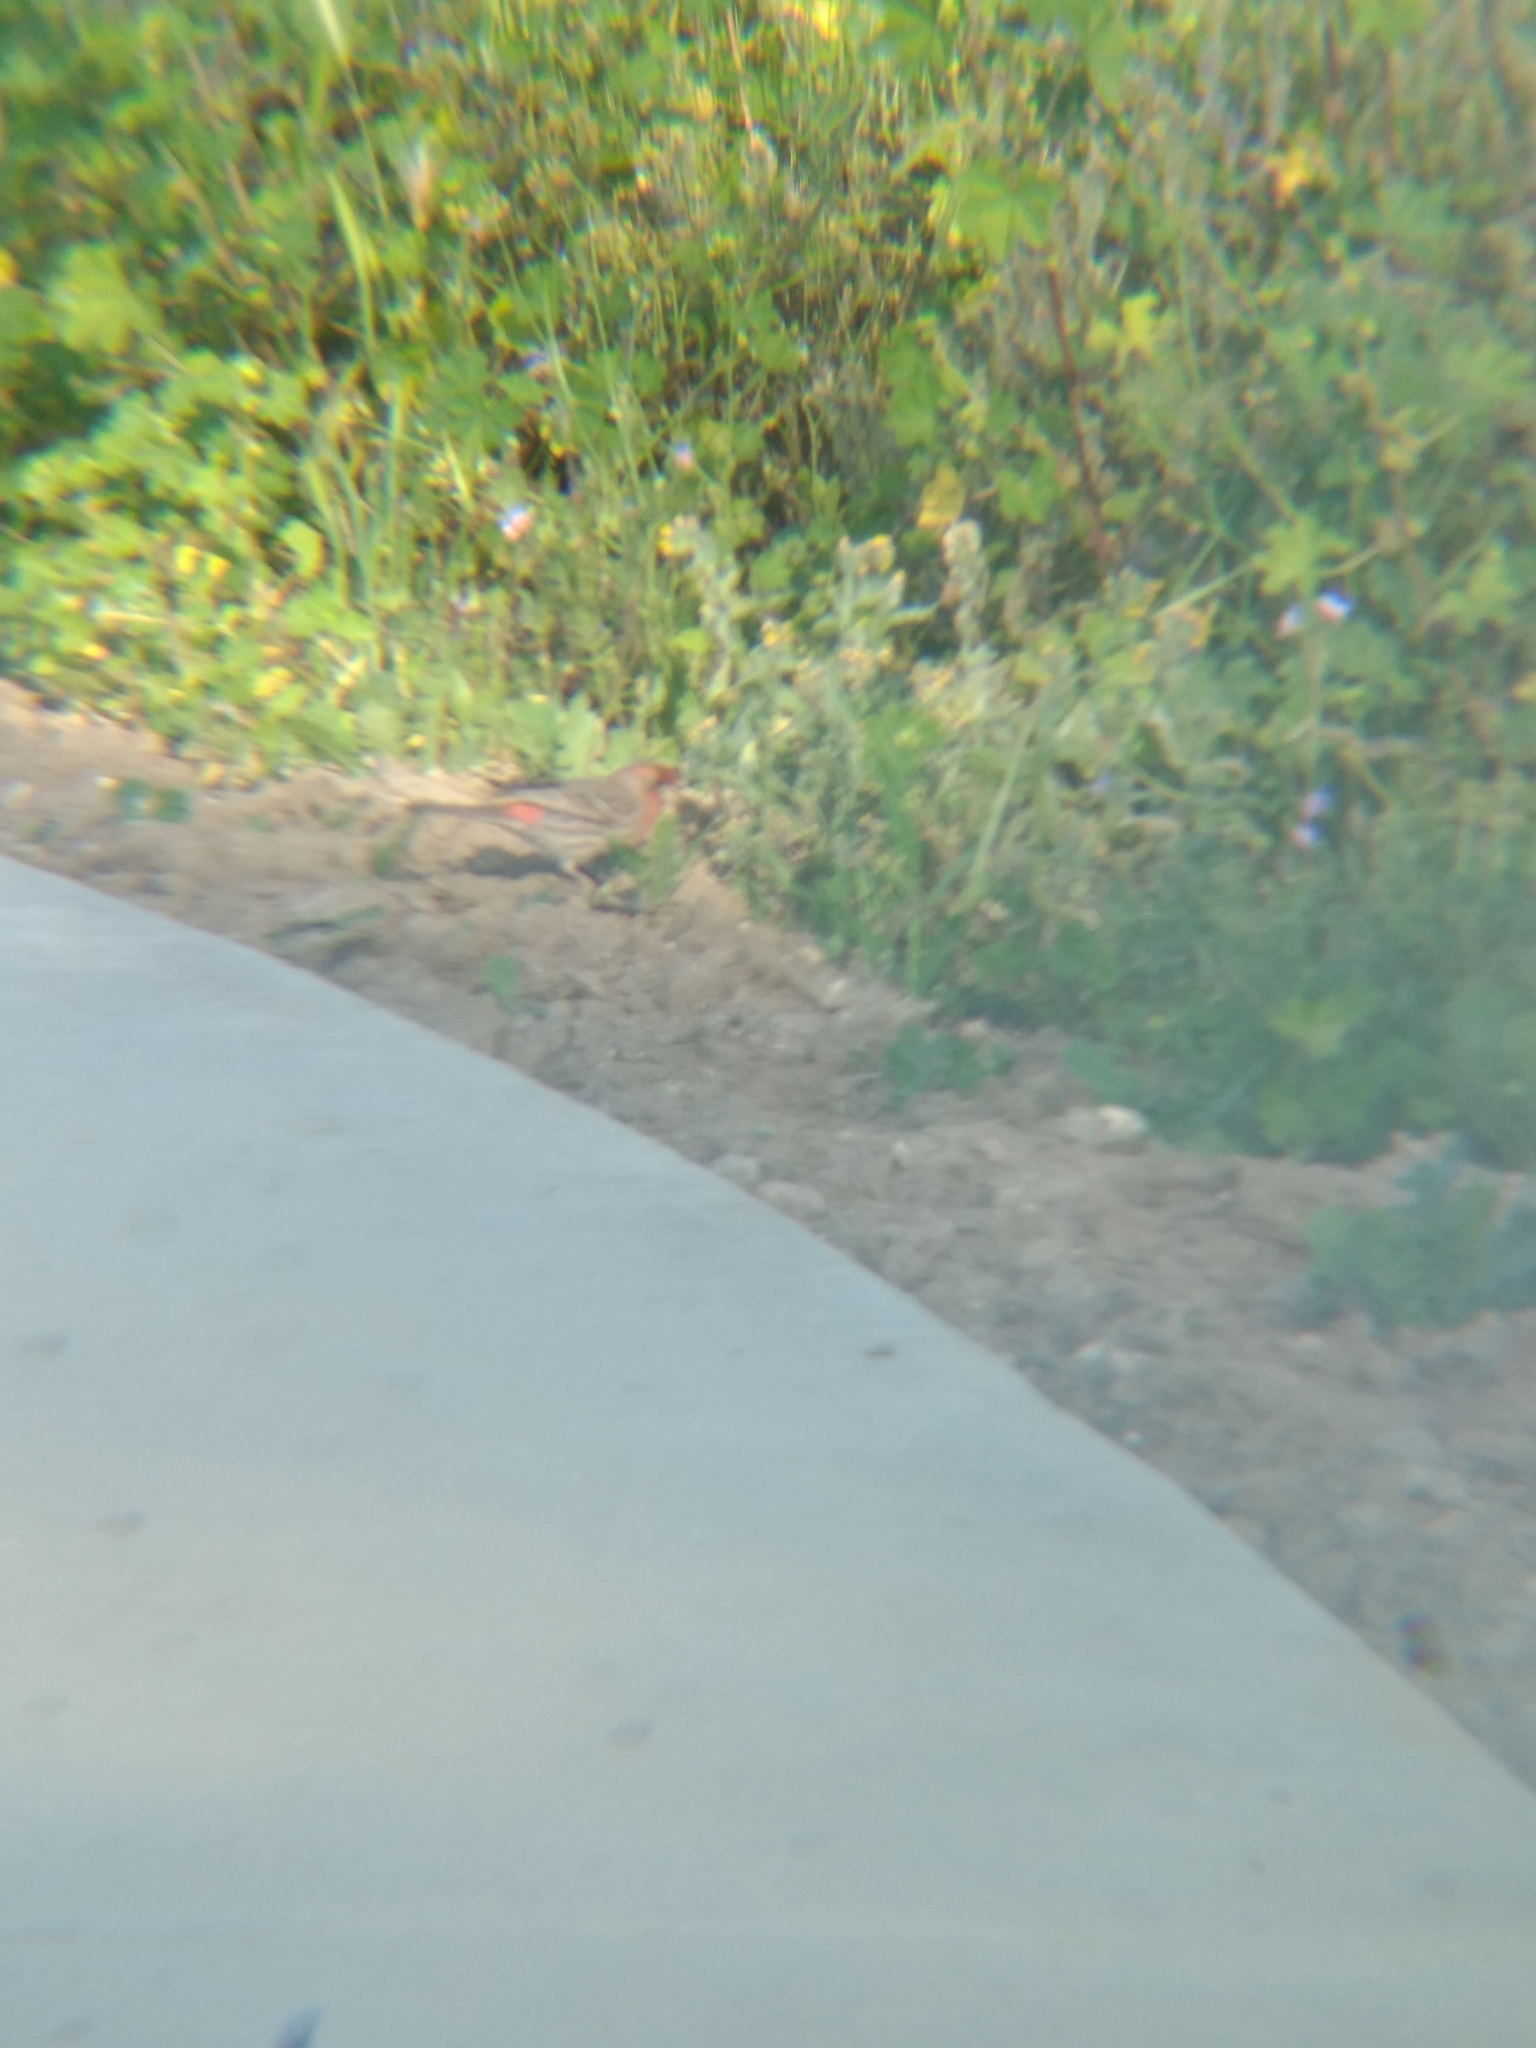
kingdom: Animalia
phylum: Chordata
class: Aves
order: Passeriformes
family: Fringillidae
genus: Haemorhous
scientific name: Haemorhous mexicanus
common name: House finch
